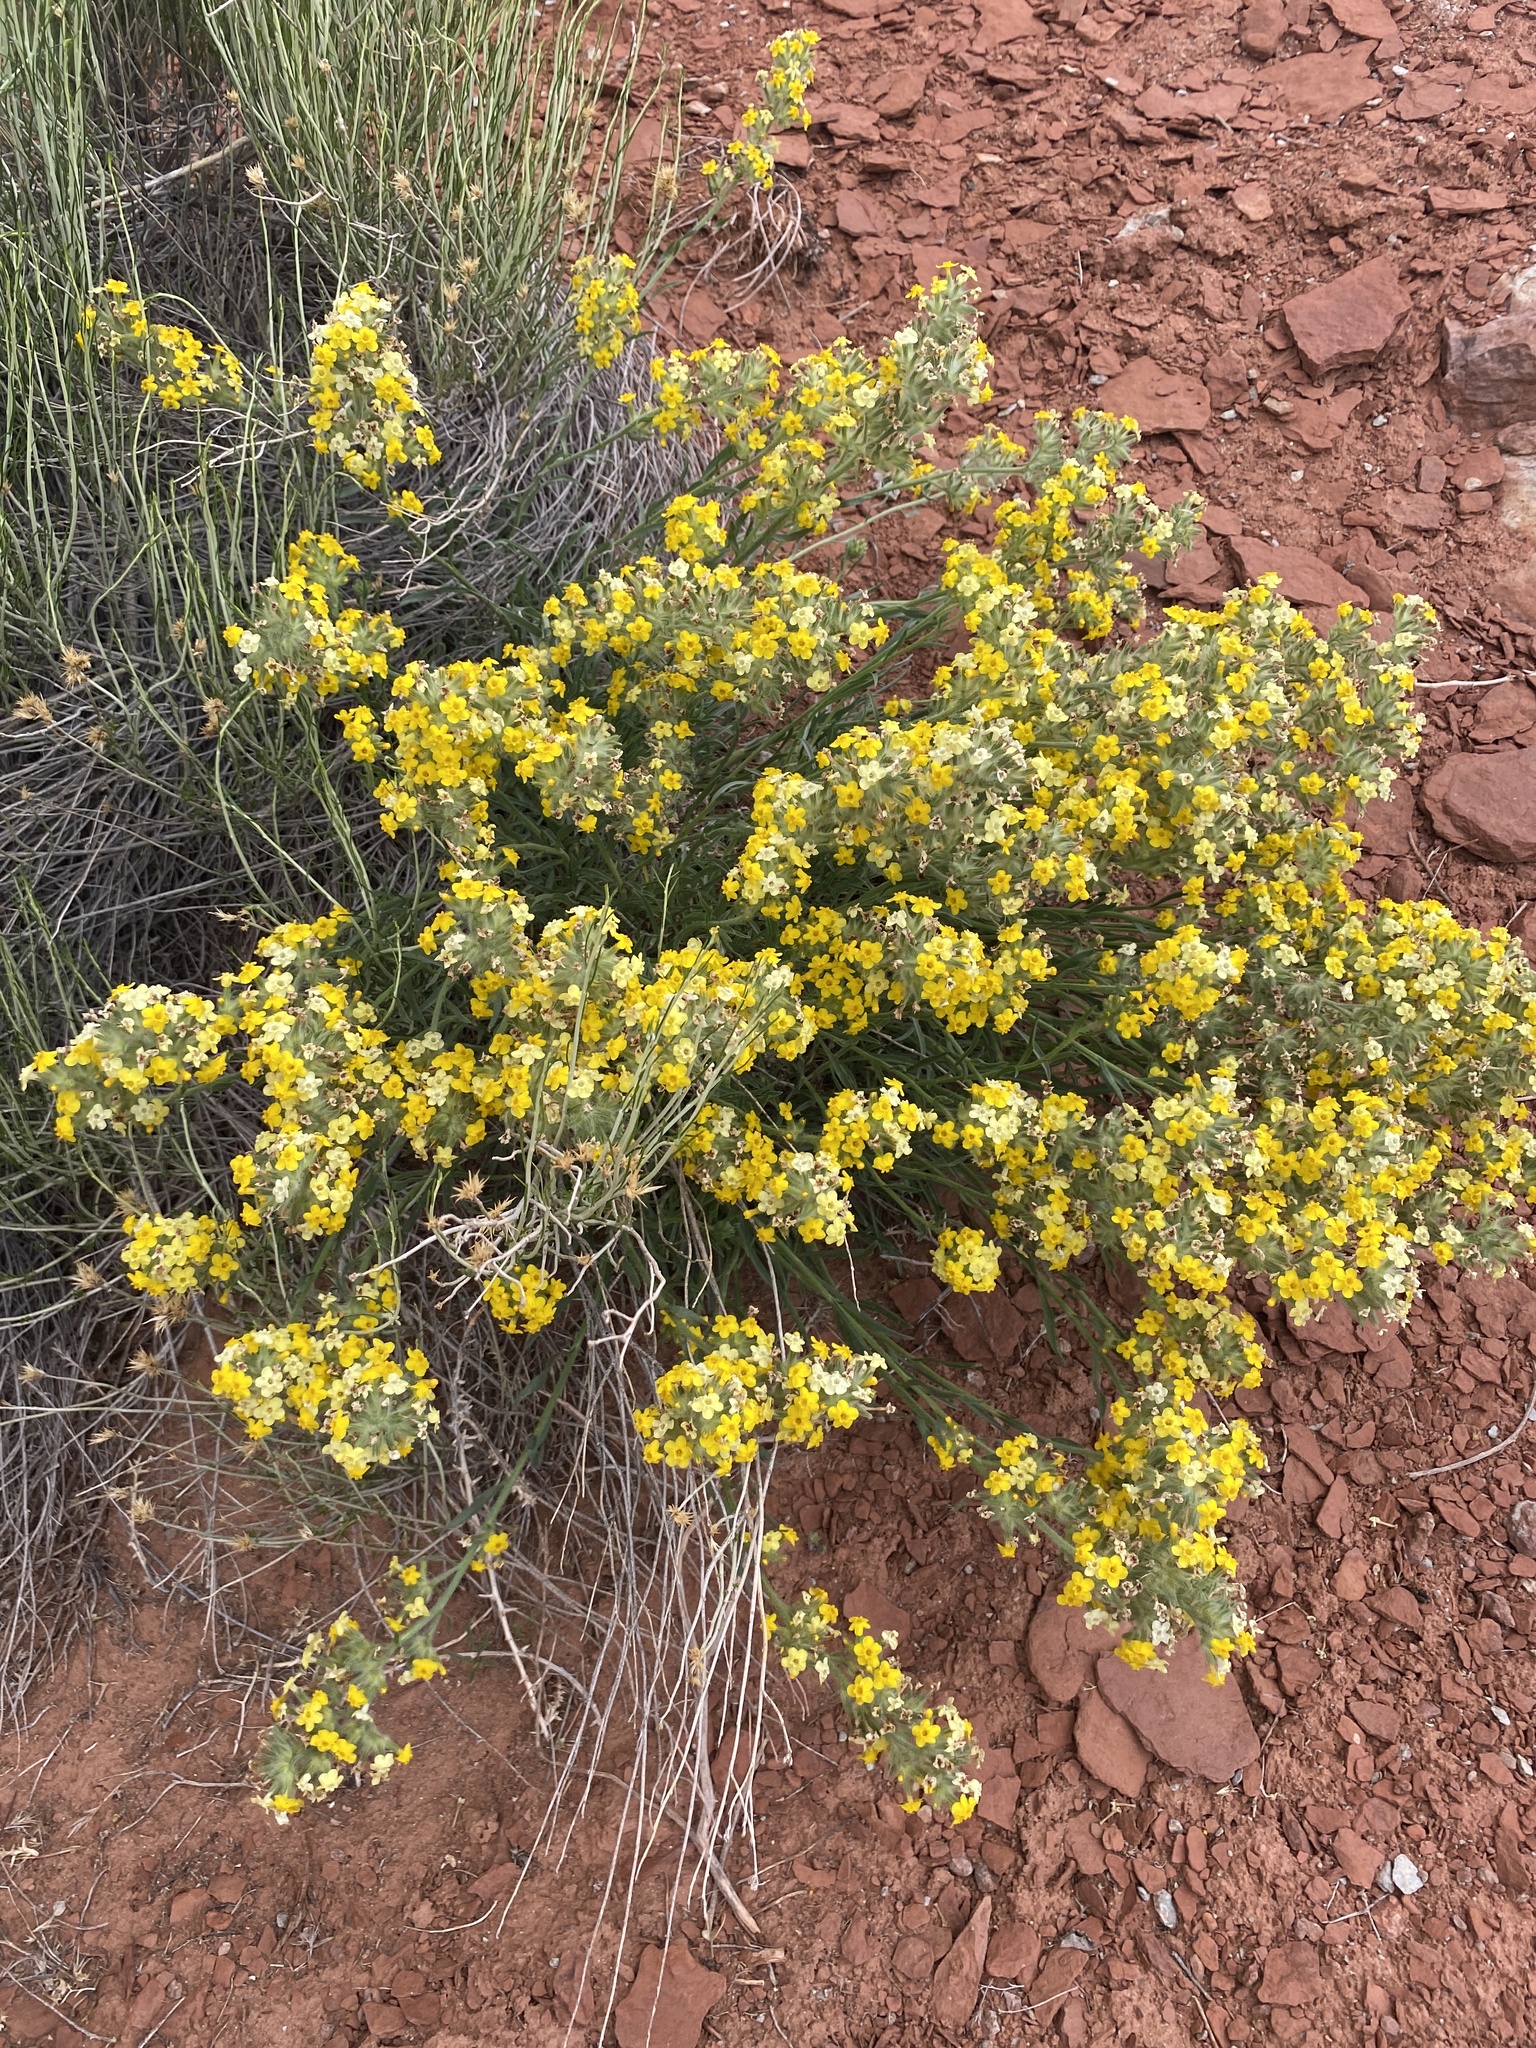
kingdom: Plantae
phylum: Tracheophyta
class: Magnoliopsida
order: Boraginales
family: Boraginaceae
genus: Oreocarya
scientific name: Oreocarya flava
